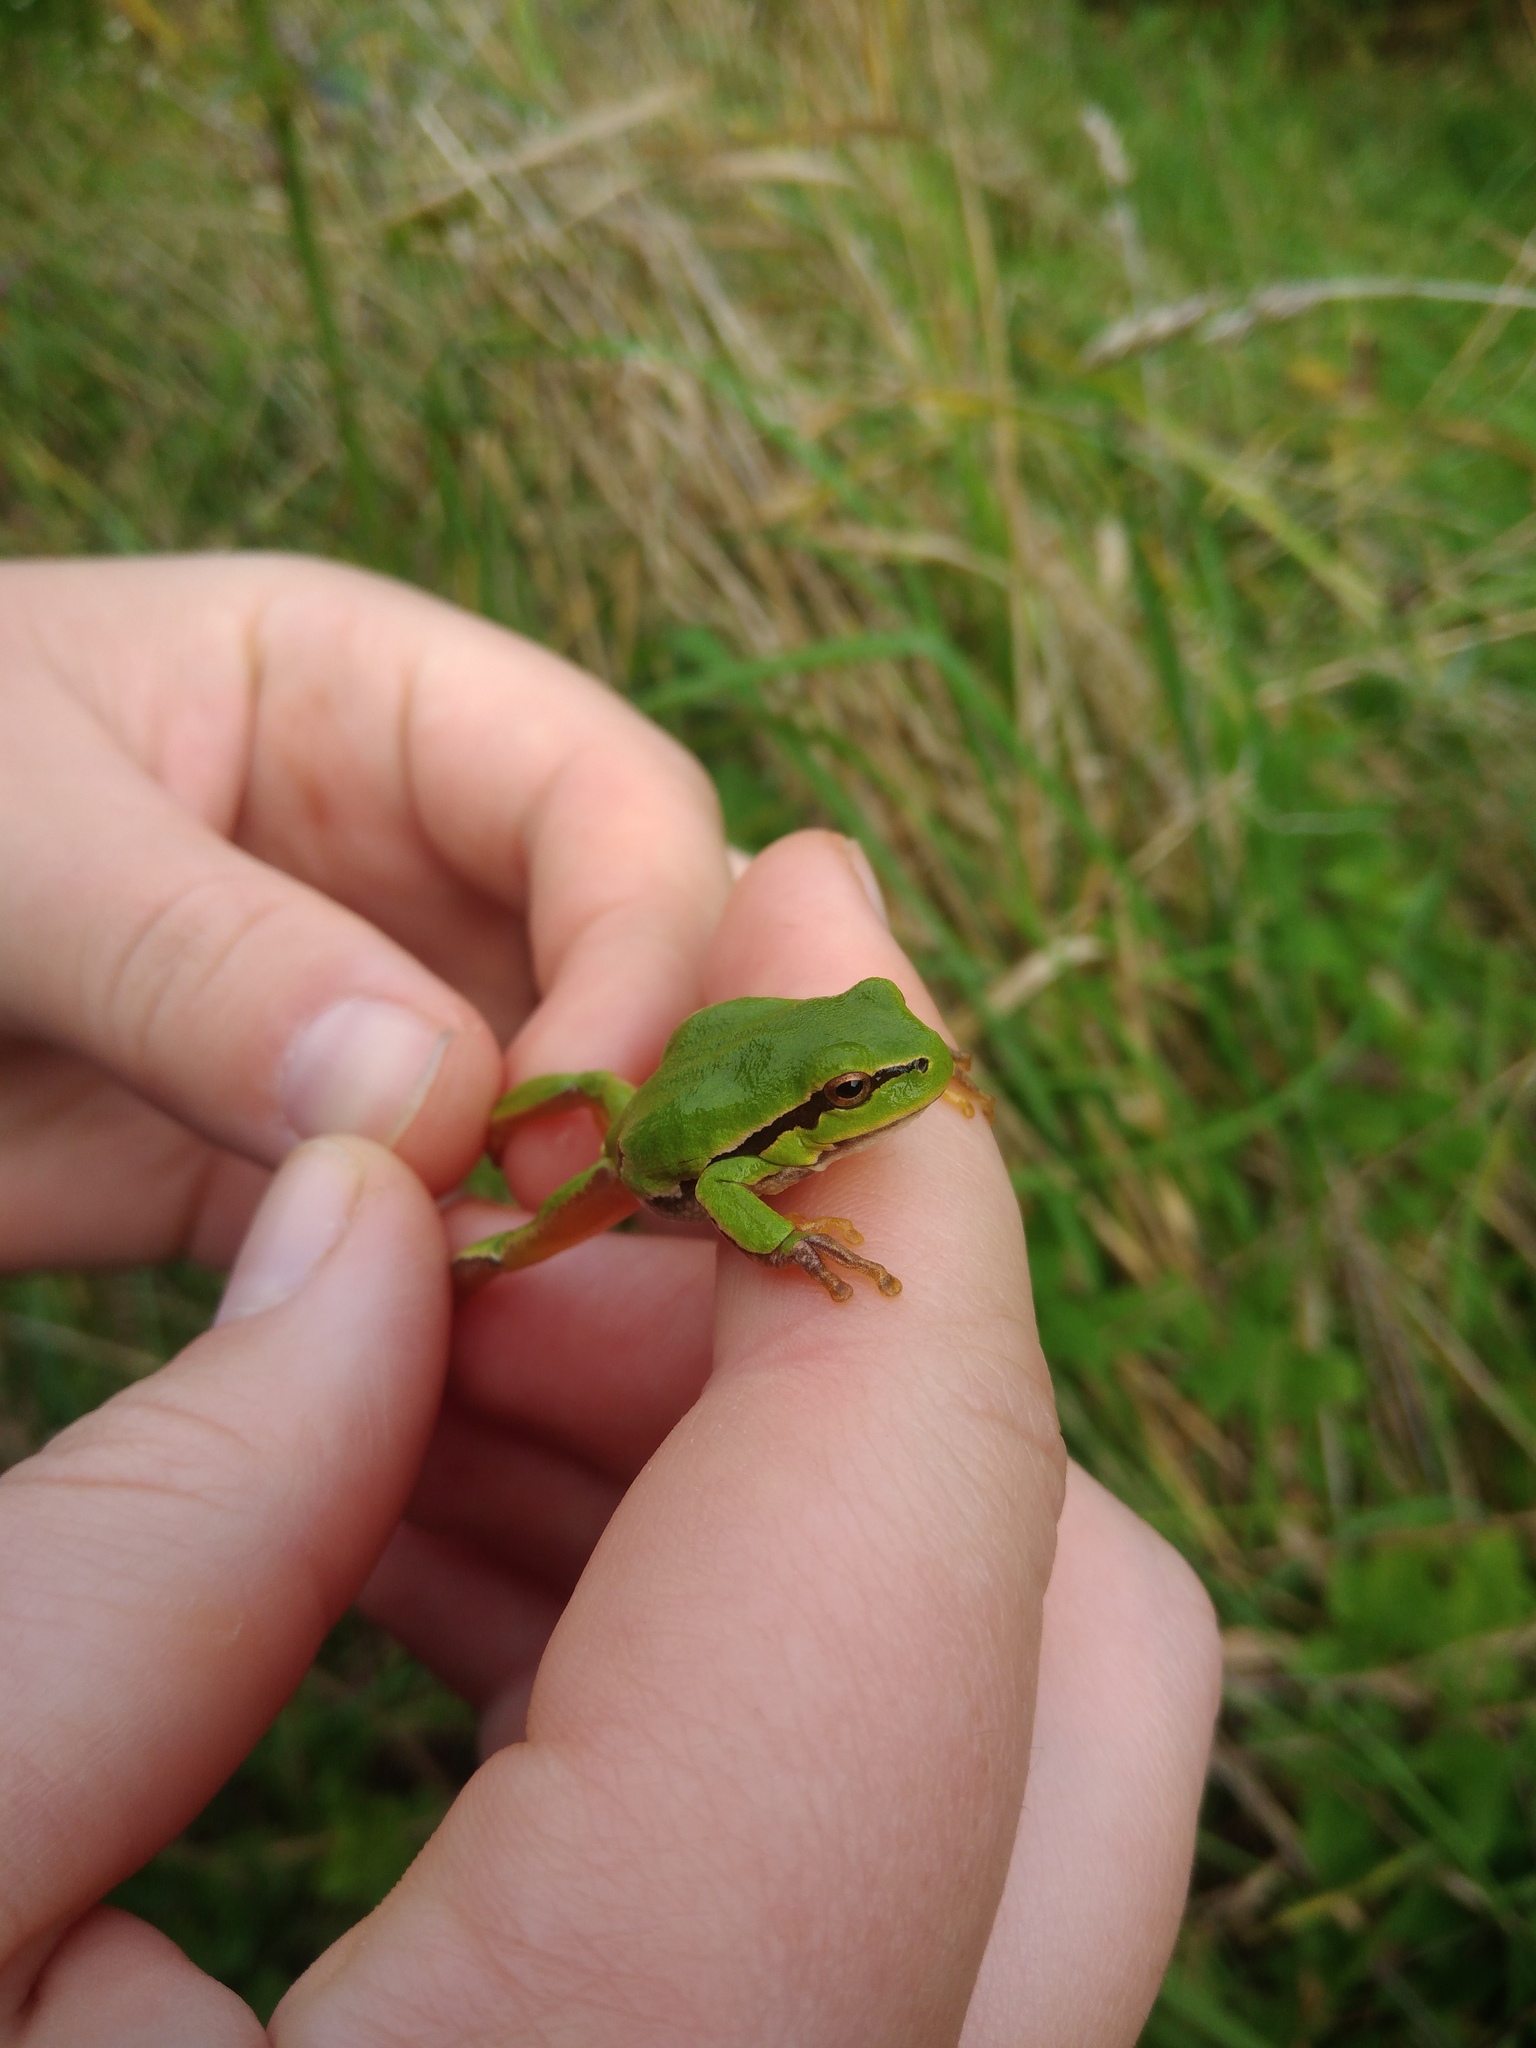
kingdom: Animalia
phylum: Chordata
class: Amphibia
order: Anura
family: Hylidae
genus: Hyla
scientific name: Hyla orientalis
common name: Caucasian treefrog
